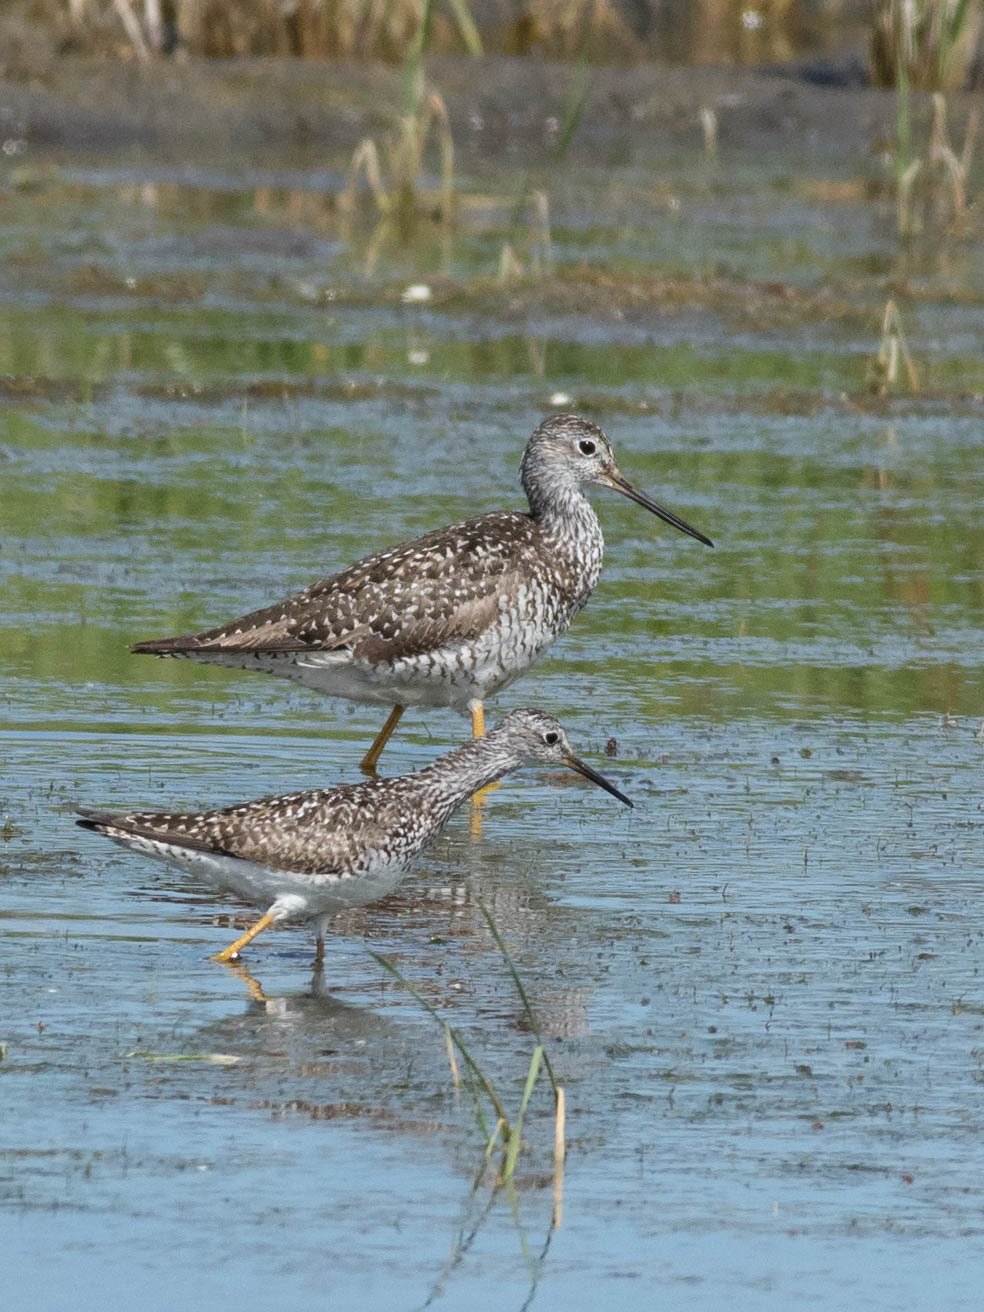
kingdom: Animalia
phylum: Chordata
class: Aves
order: Charadriiformes
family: Scolopacidae
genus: Tringa
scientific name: Tringa melanoleuca
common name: Greater yellowlegs
